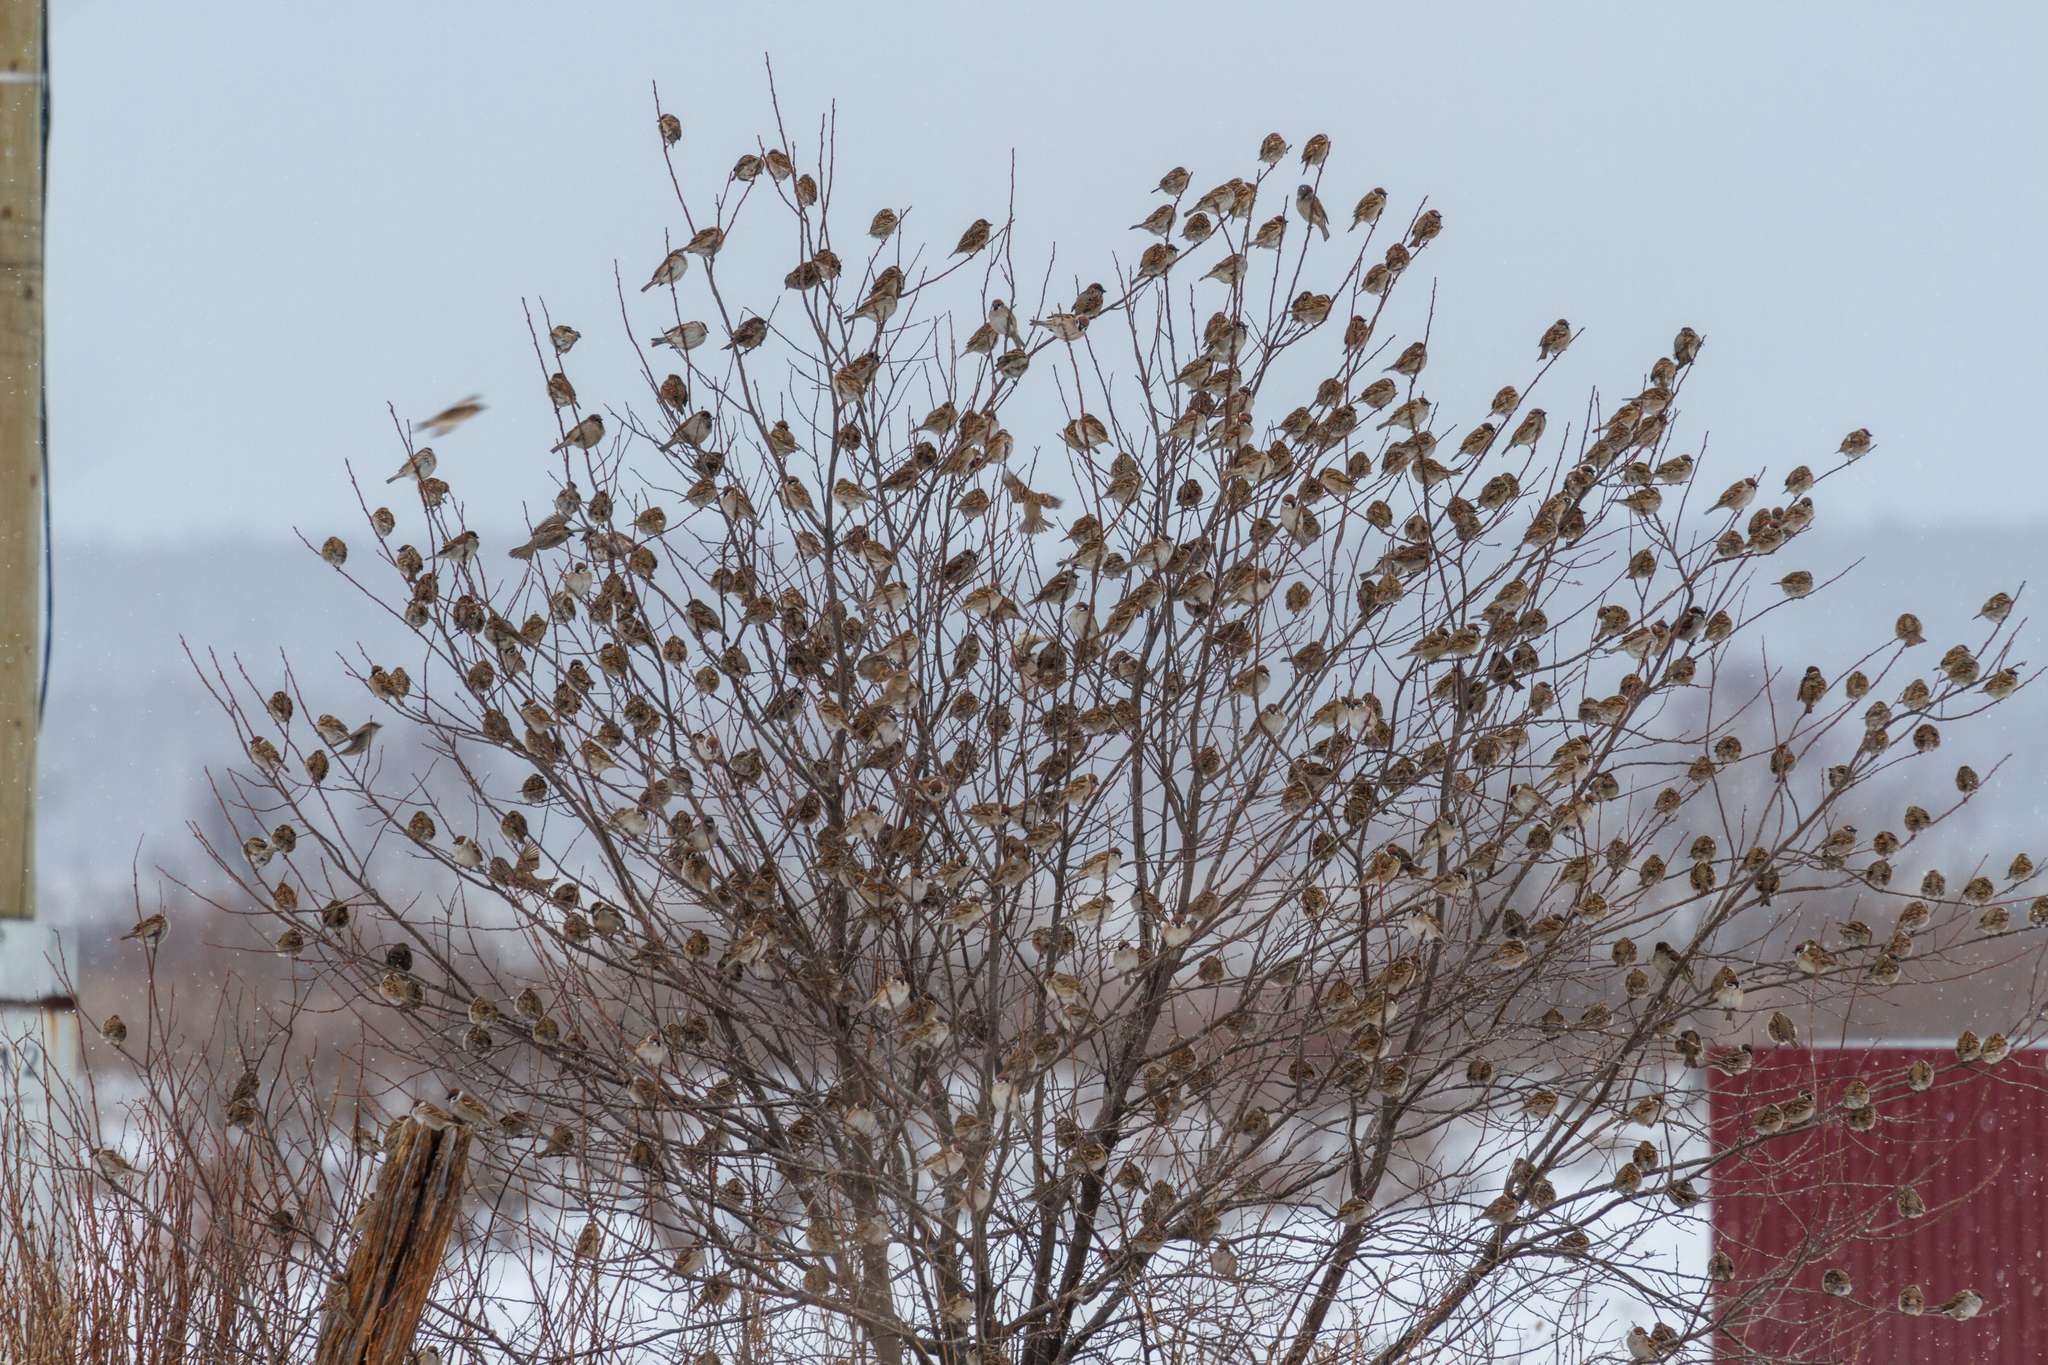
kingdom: Animalia
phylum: Chordata
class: Aves
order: Passeriformes
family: Passeridae
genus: Passer
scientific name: Passer montanus
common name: Eurasian tree sparrow
